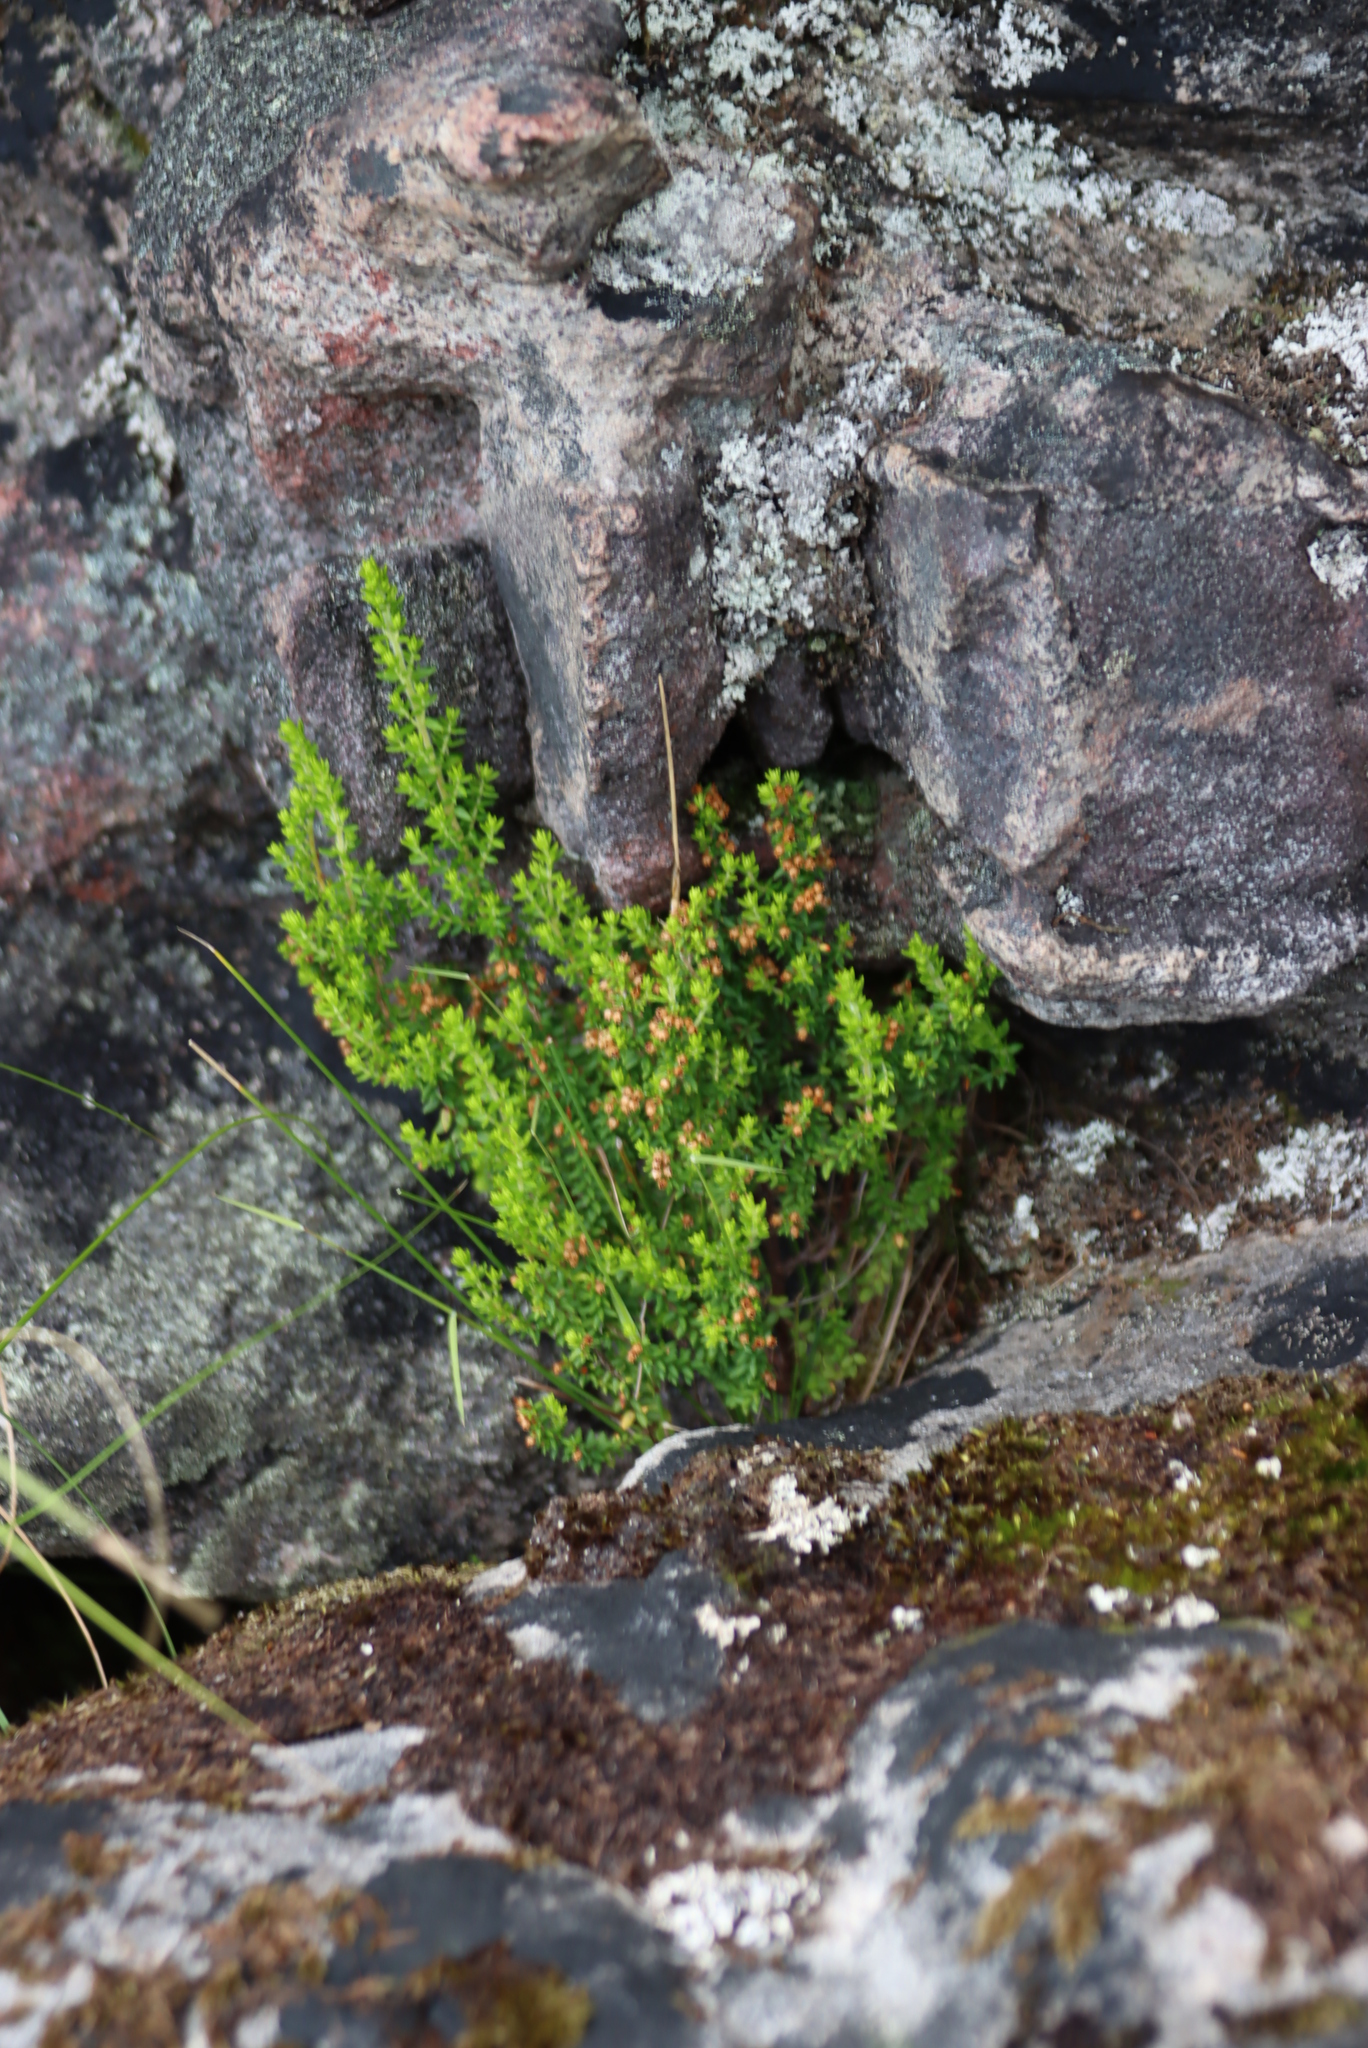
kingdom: Plantae
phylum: Tracheophyta
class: Magnoliopsida
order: Ericales
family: Ericaceae
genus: Erica
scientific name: Erica hispidula
